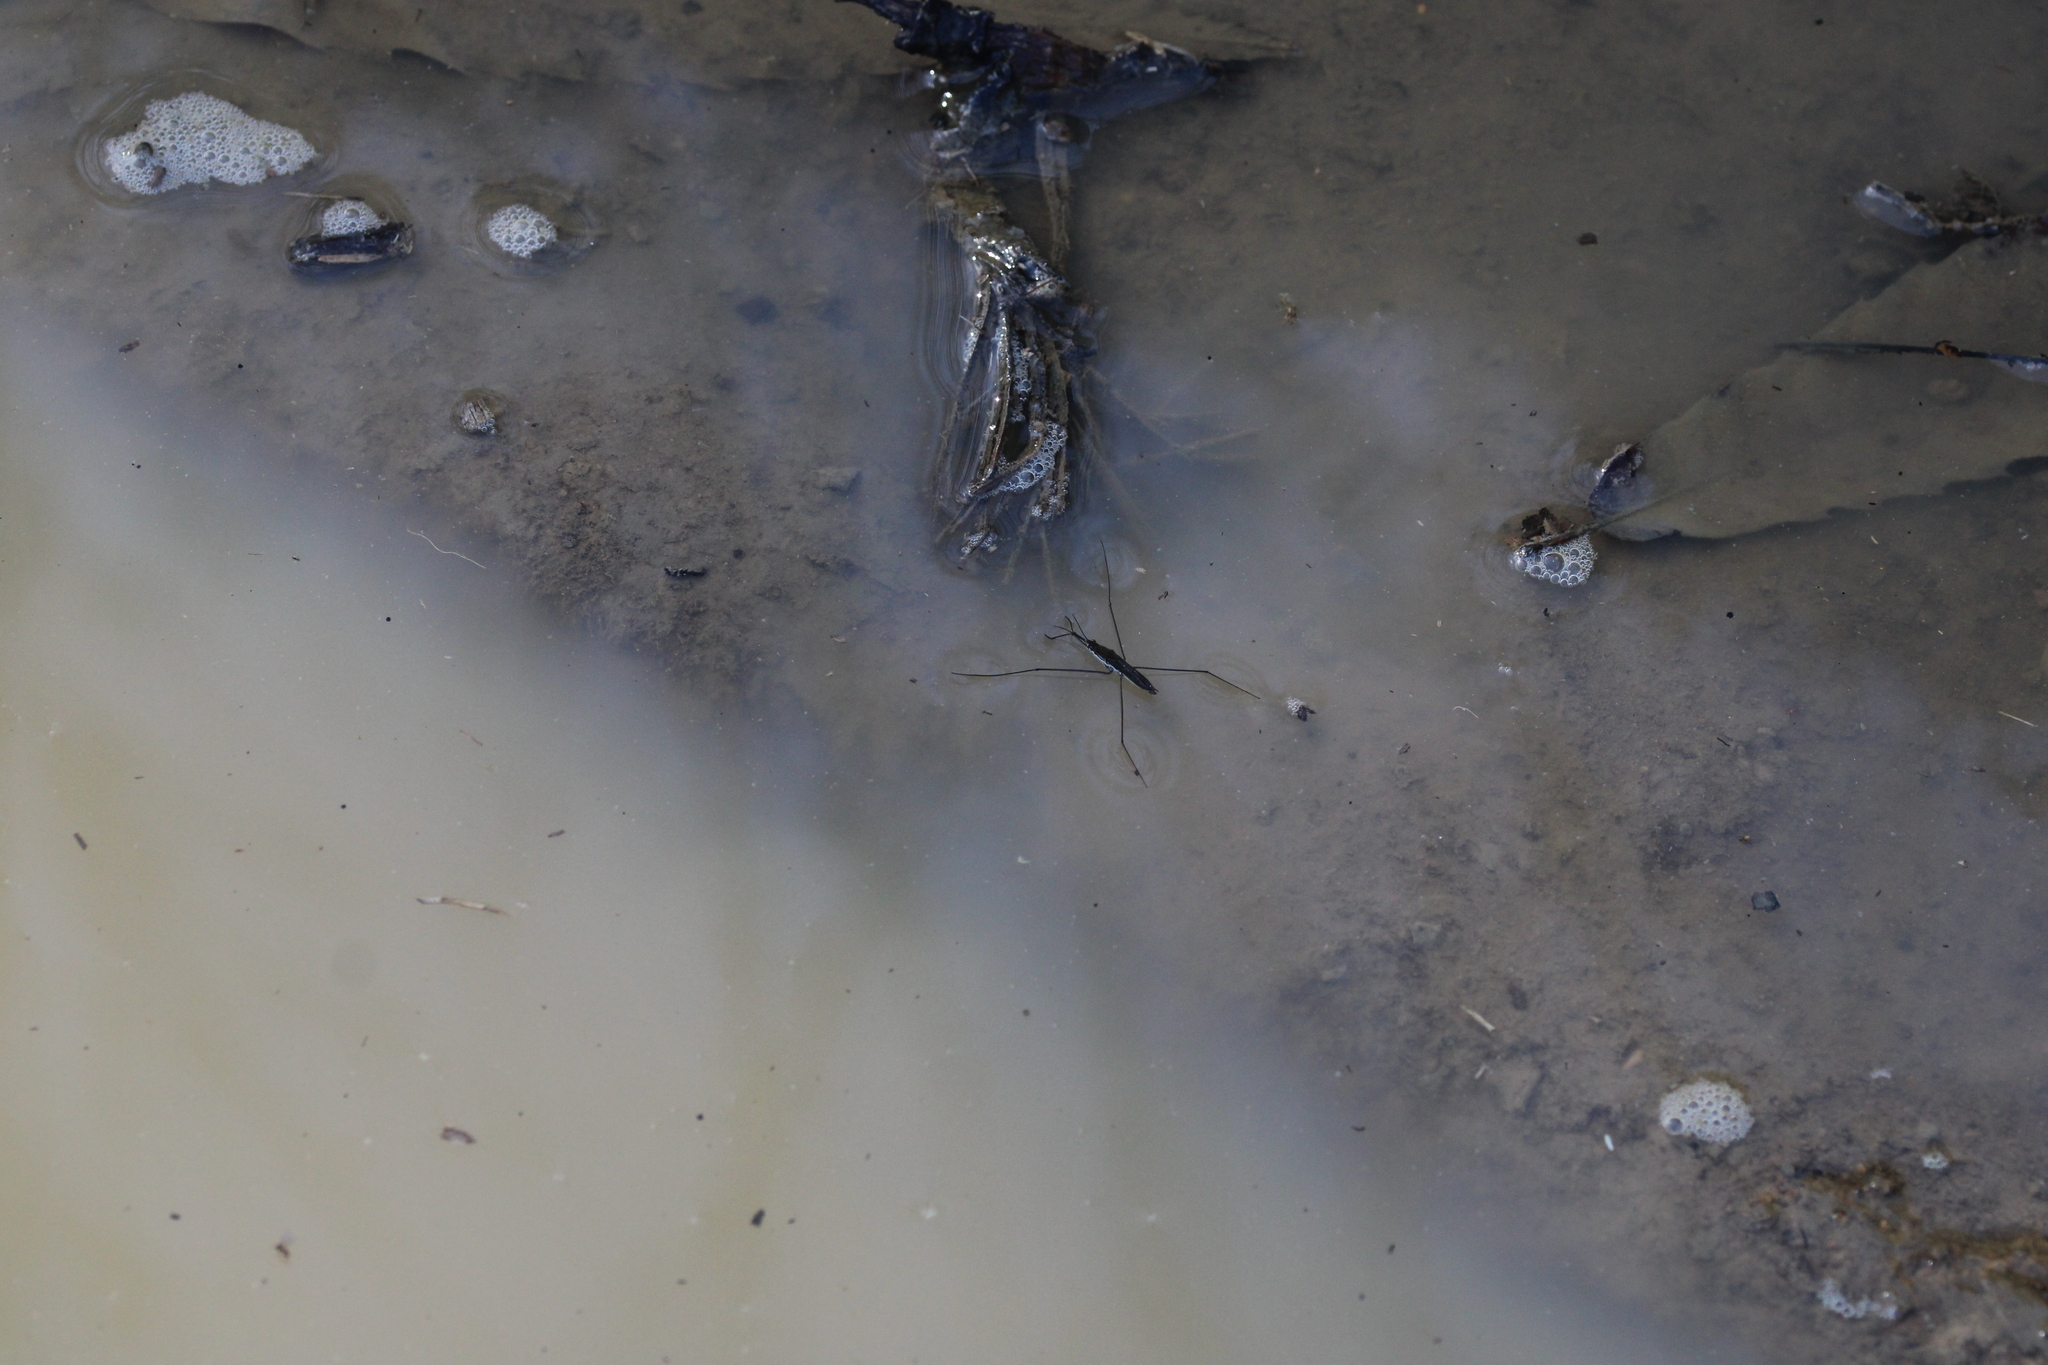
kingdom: Animalia
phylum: Arthropoda
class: Insecta
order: Hemiptera
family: Gerridae
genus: Aquarius
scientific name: Aquarius paludum
